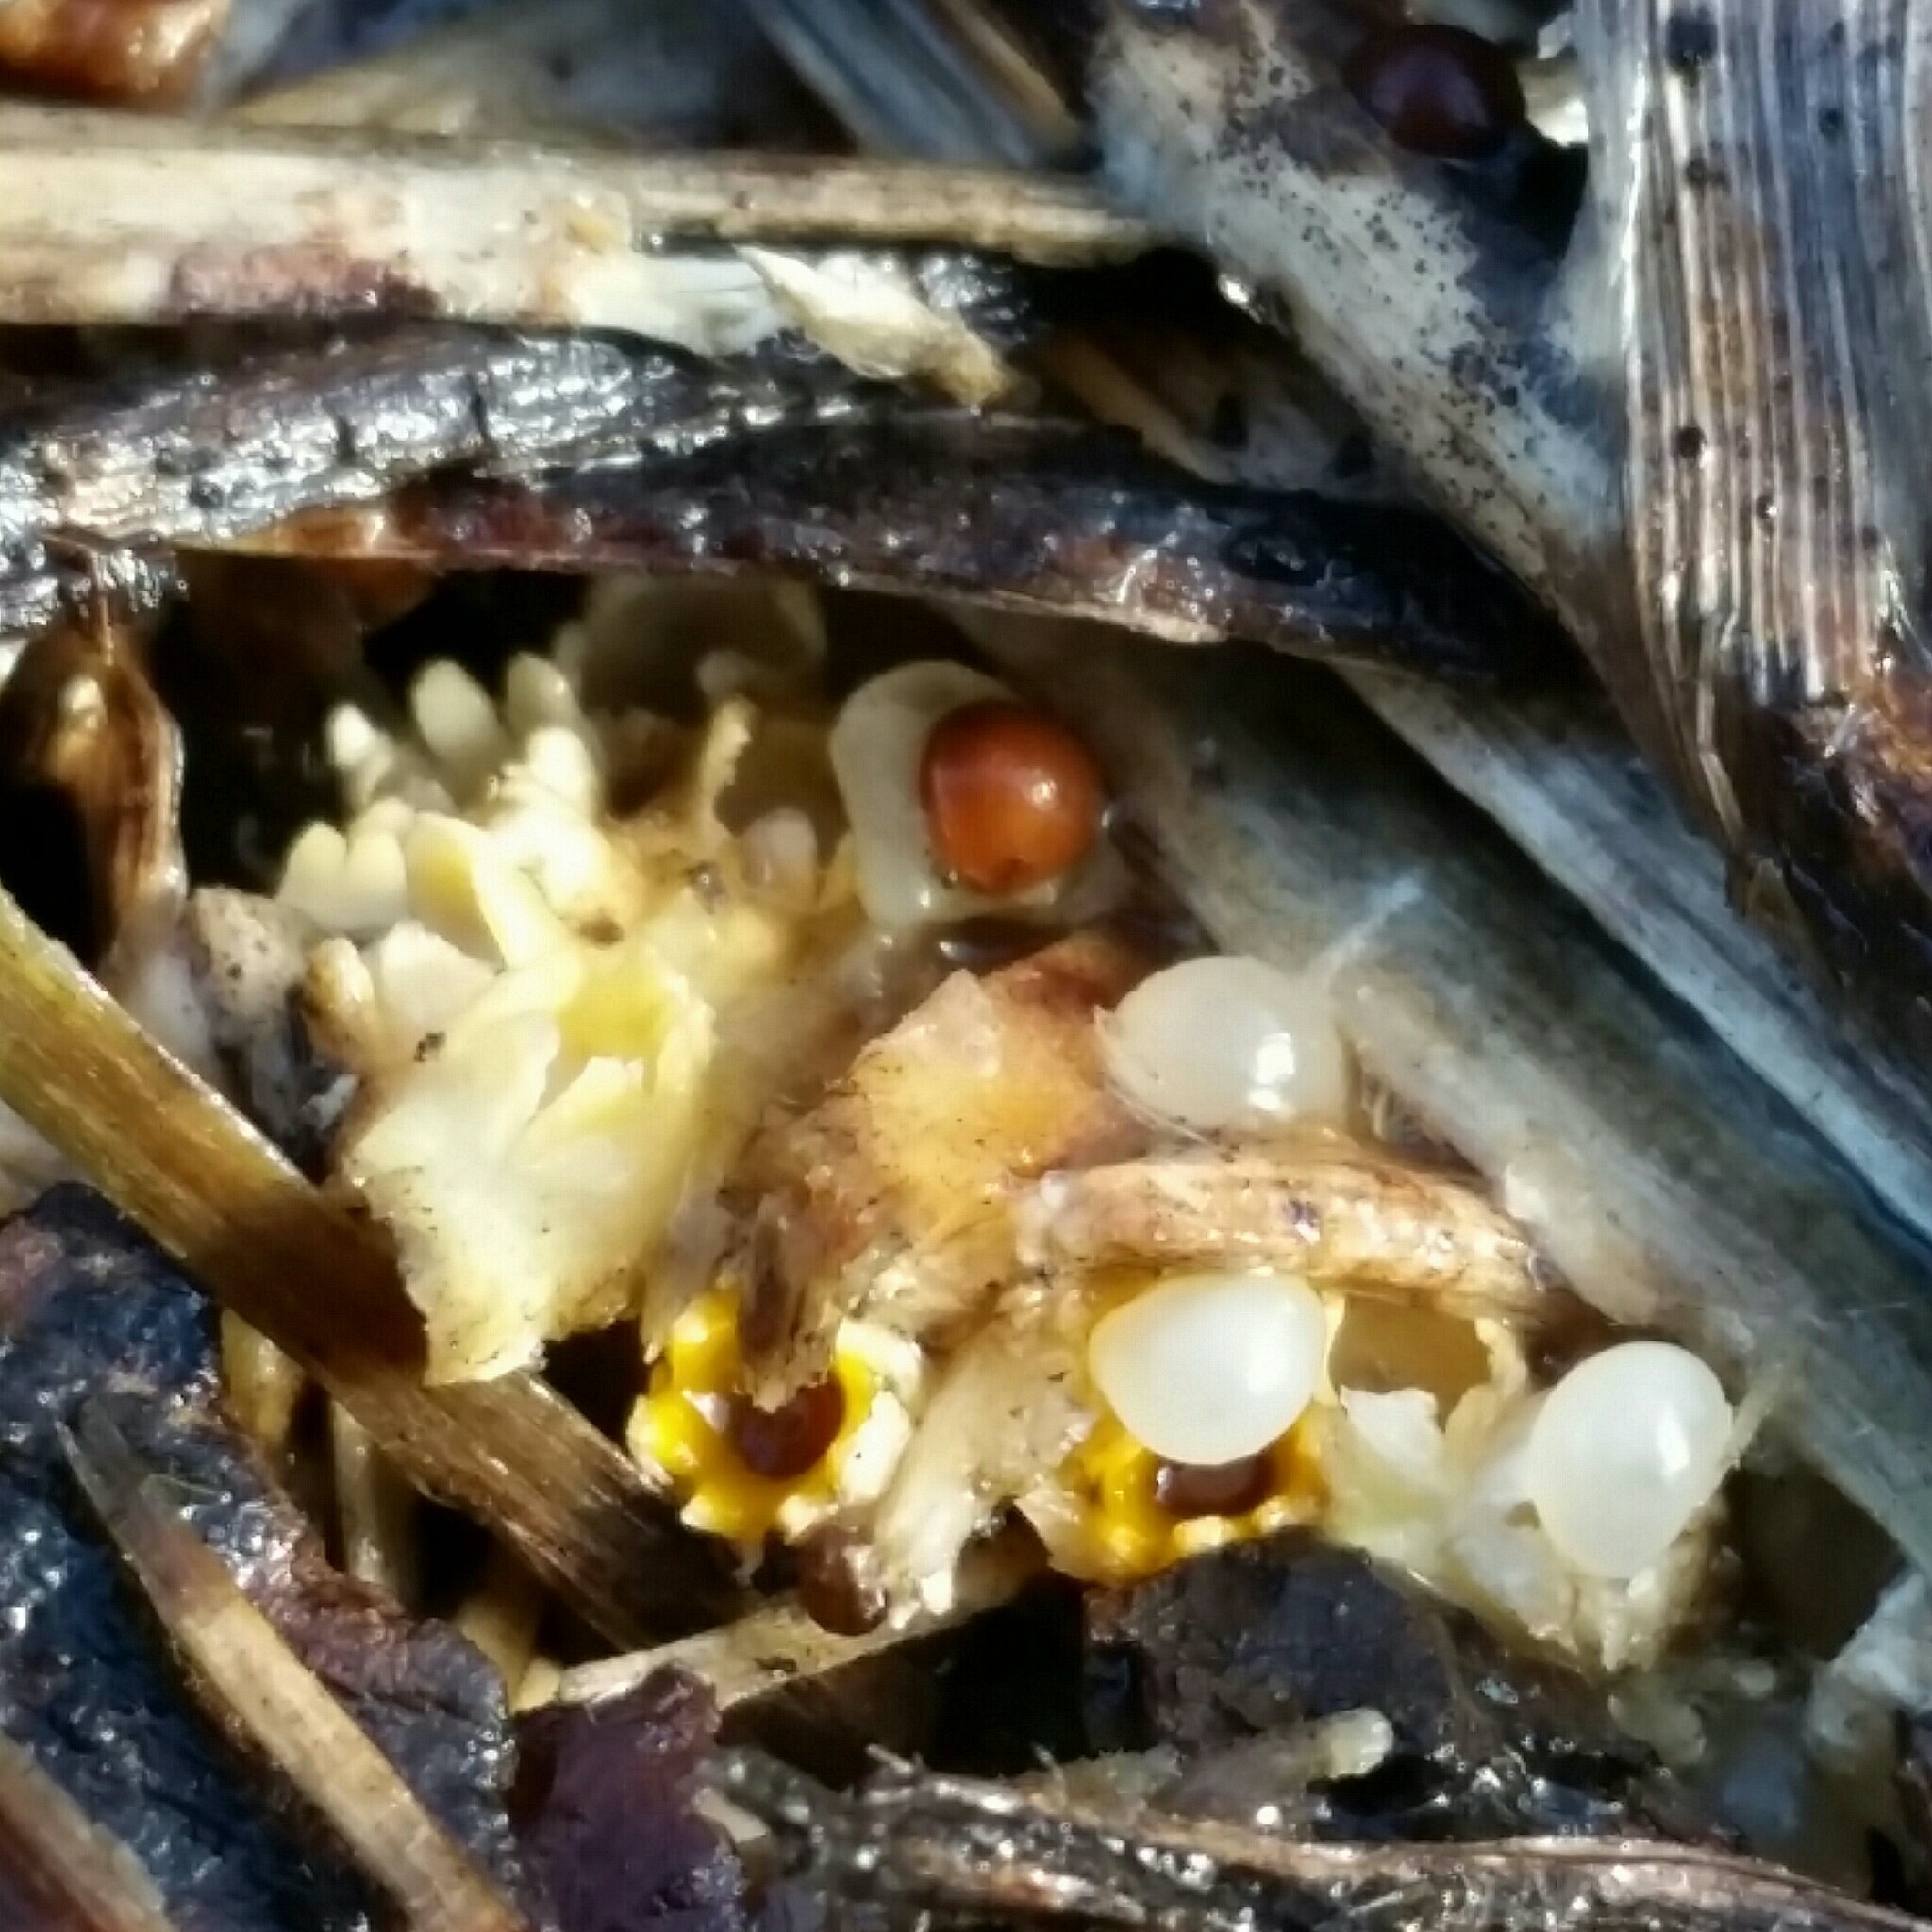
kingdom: Fungi
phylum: Basidiomycota
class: Agaricomycetes
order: Geastrales
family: Geastraceae
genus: Sphaerobolus
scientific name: Sphaerobolus stellatus
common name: Cannon fungus
